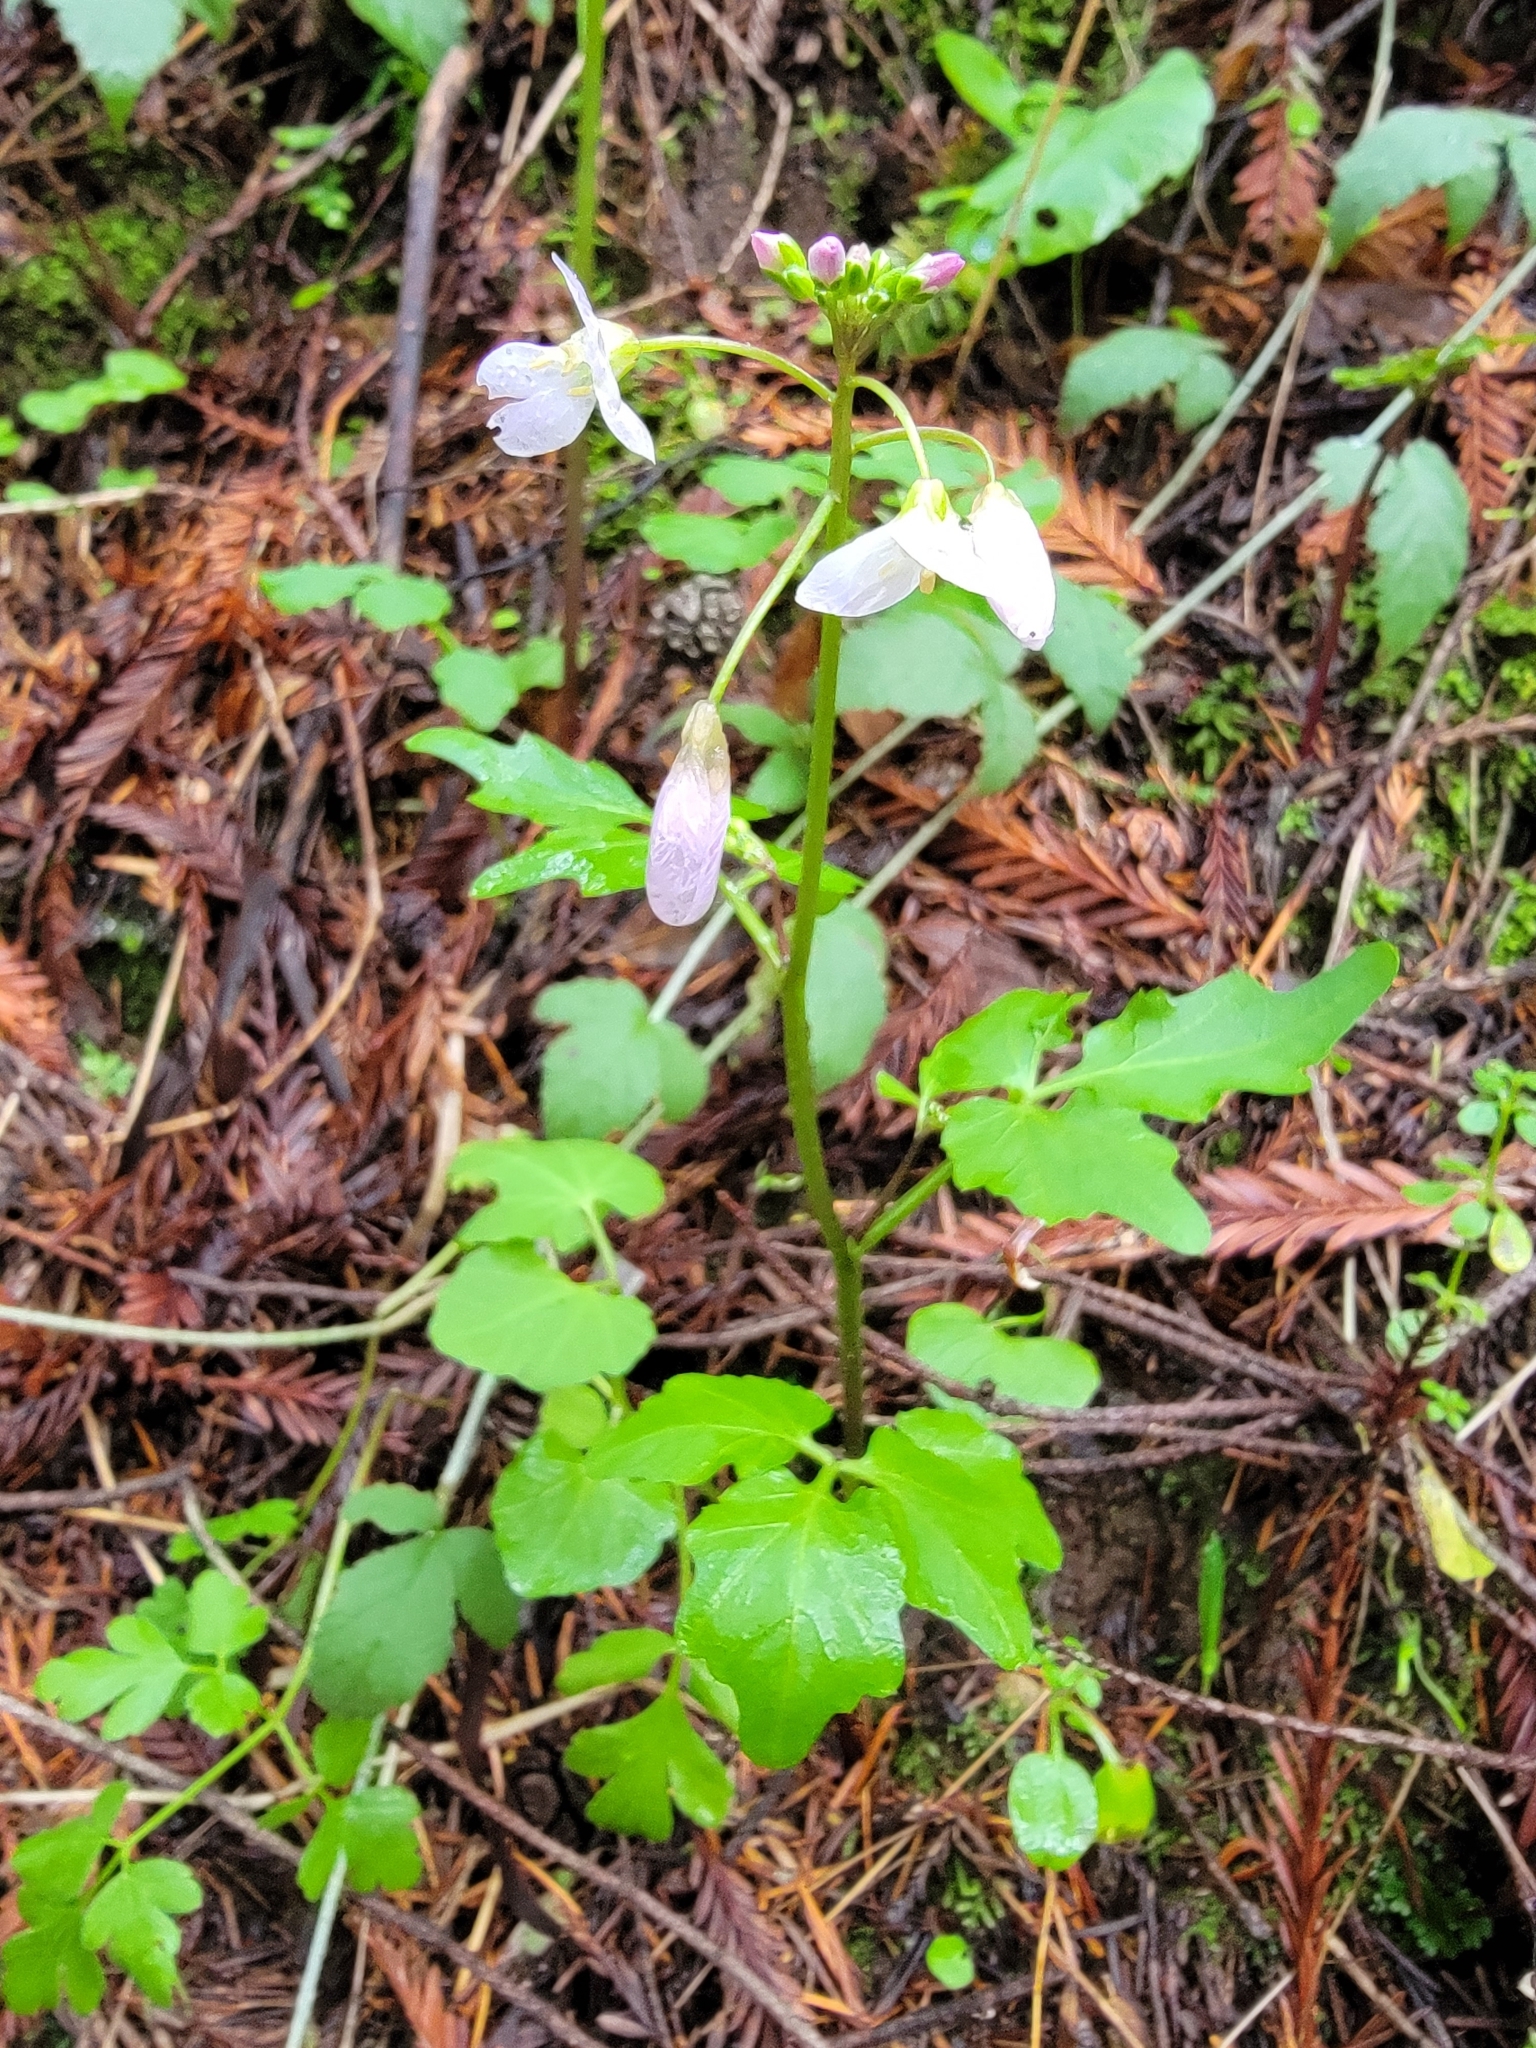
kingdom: Plantae
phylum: Tracheophyta
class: Magnoliopsida
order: Brassicales
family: Brassicaceae
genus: Cardamine
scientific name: Cardamine californica
